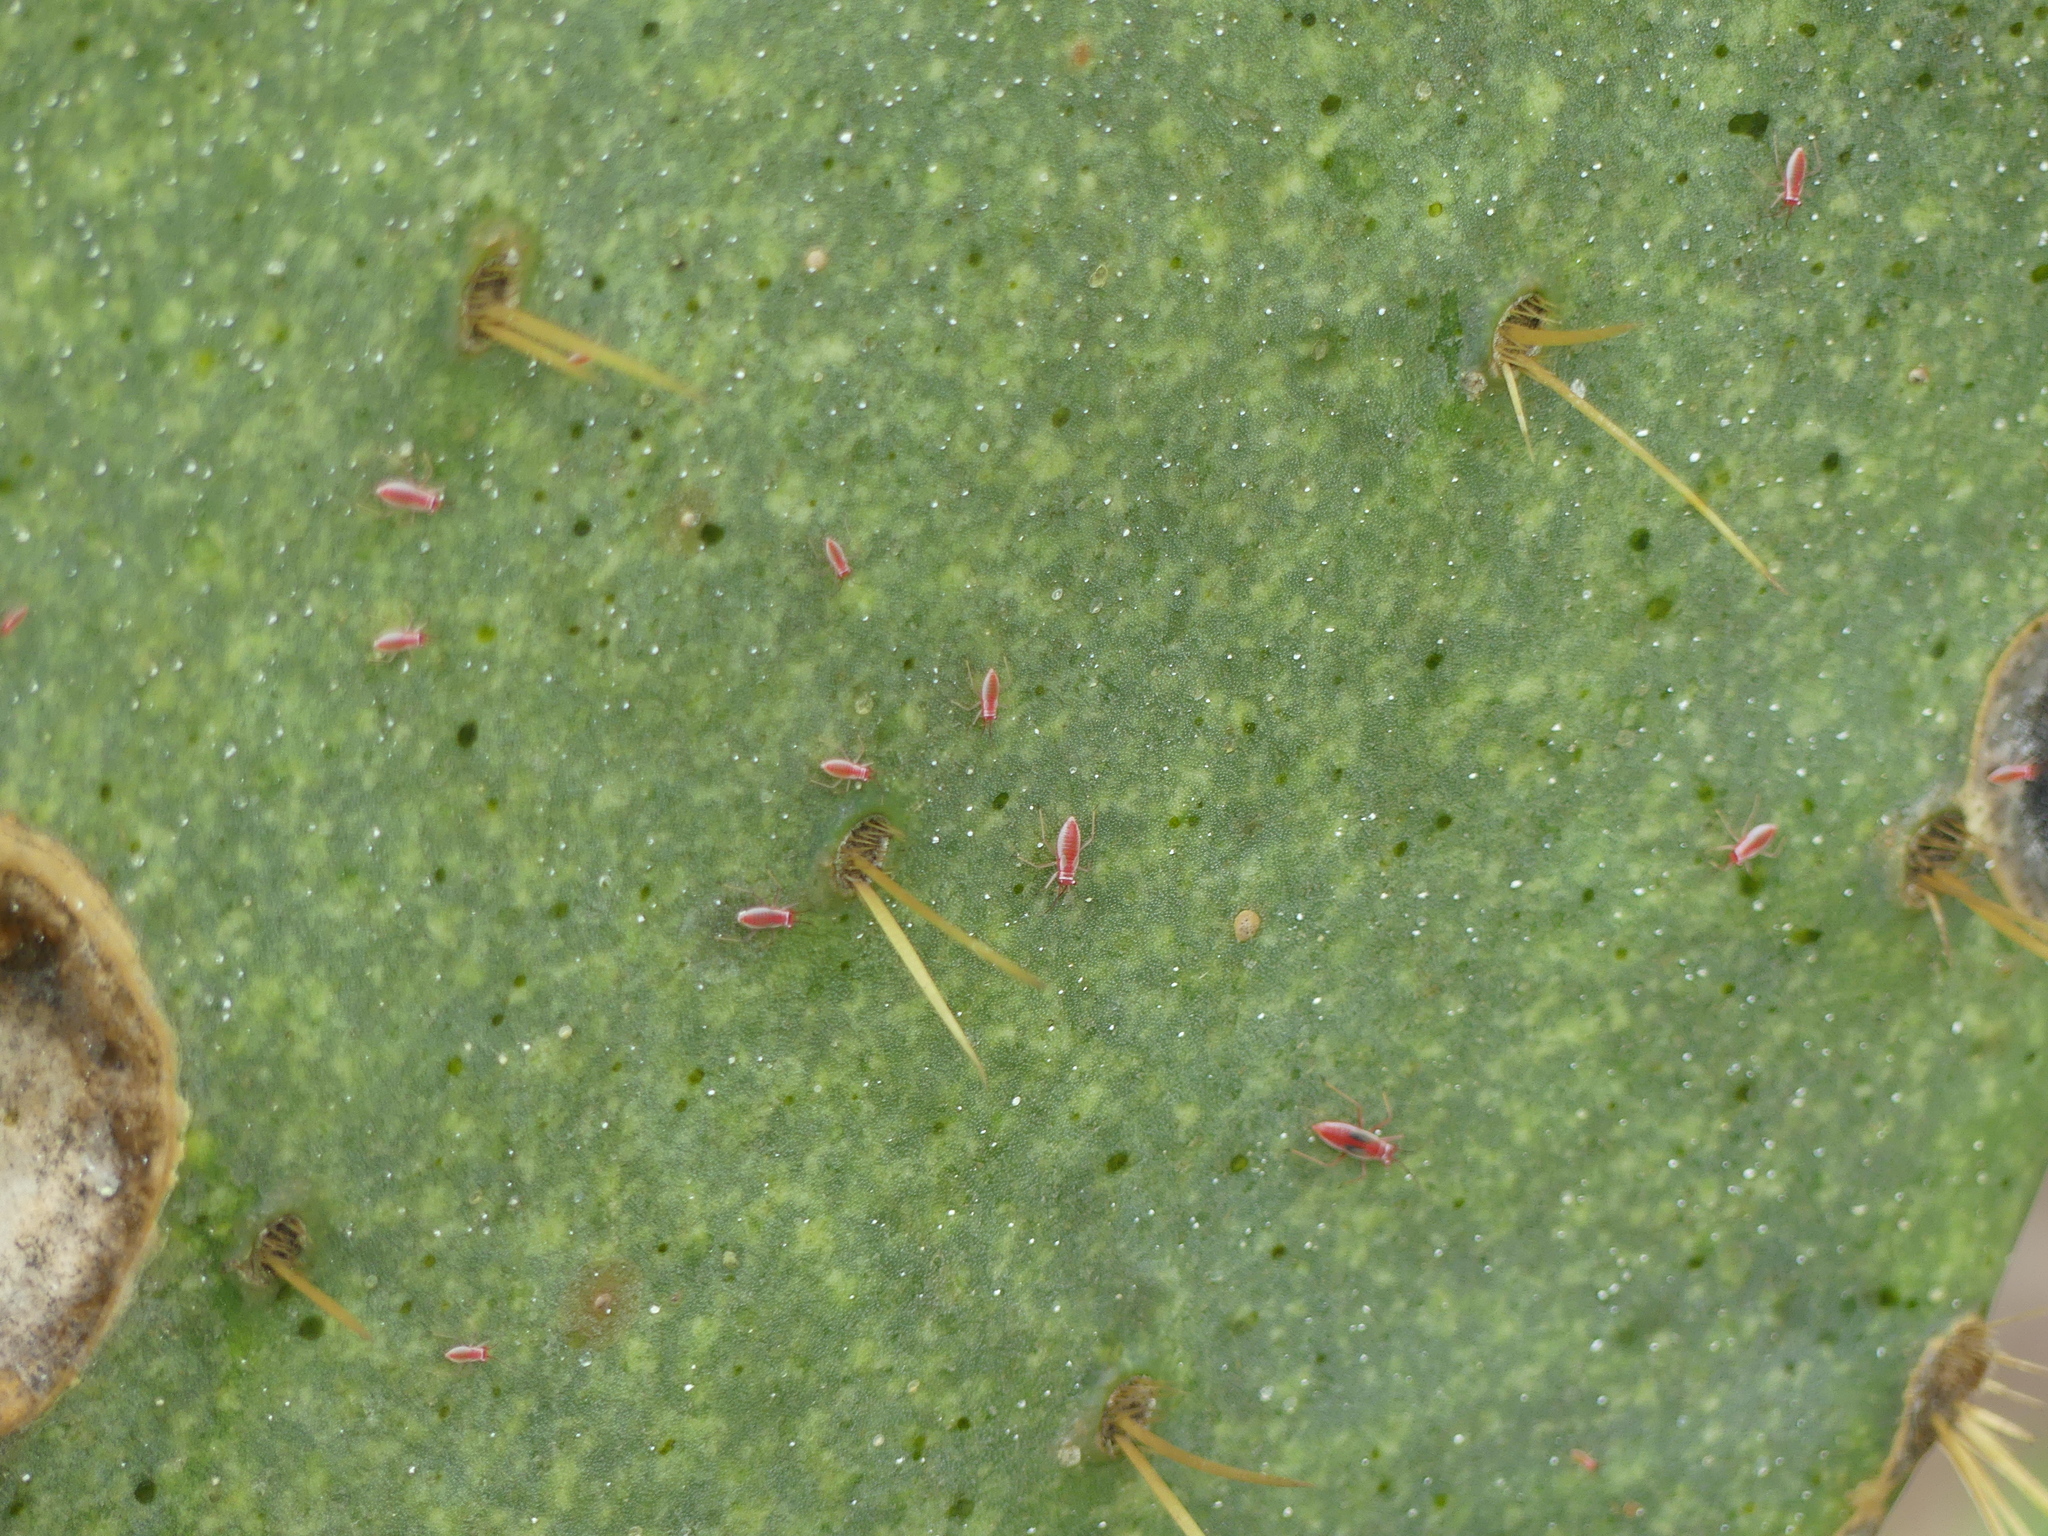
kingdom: Animalia
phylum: Arthropoda
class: Insecta
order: Hemiptera
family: Miridae
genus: Hesperolabops
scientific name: Hesperolabops gelastops
